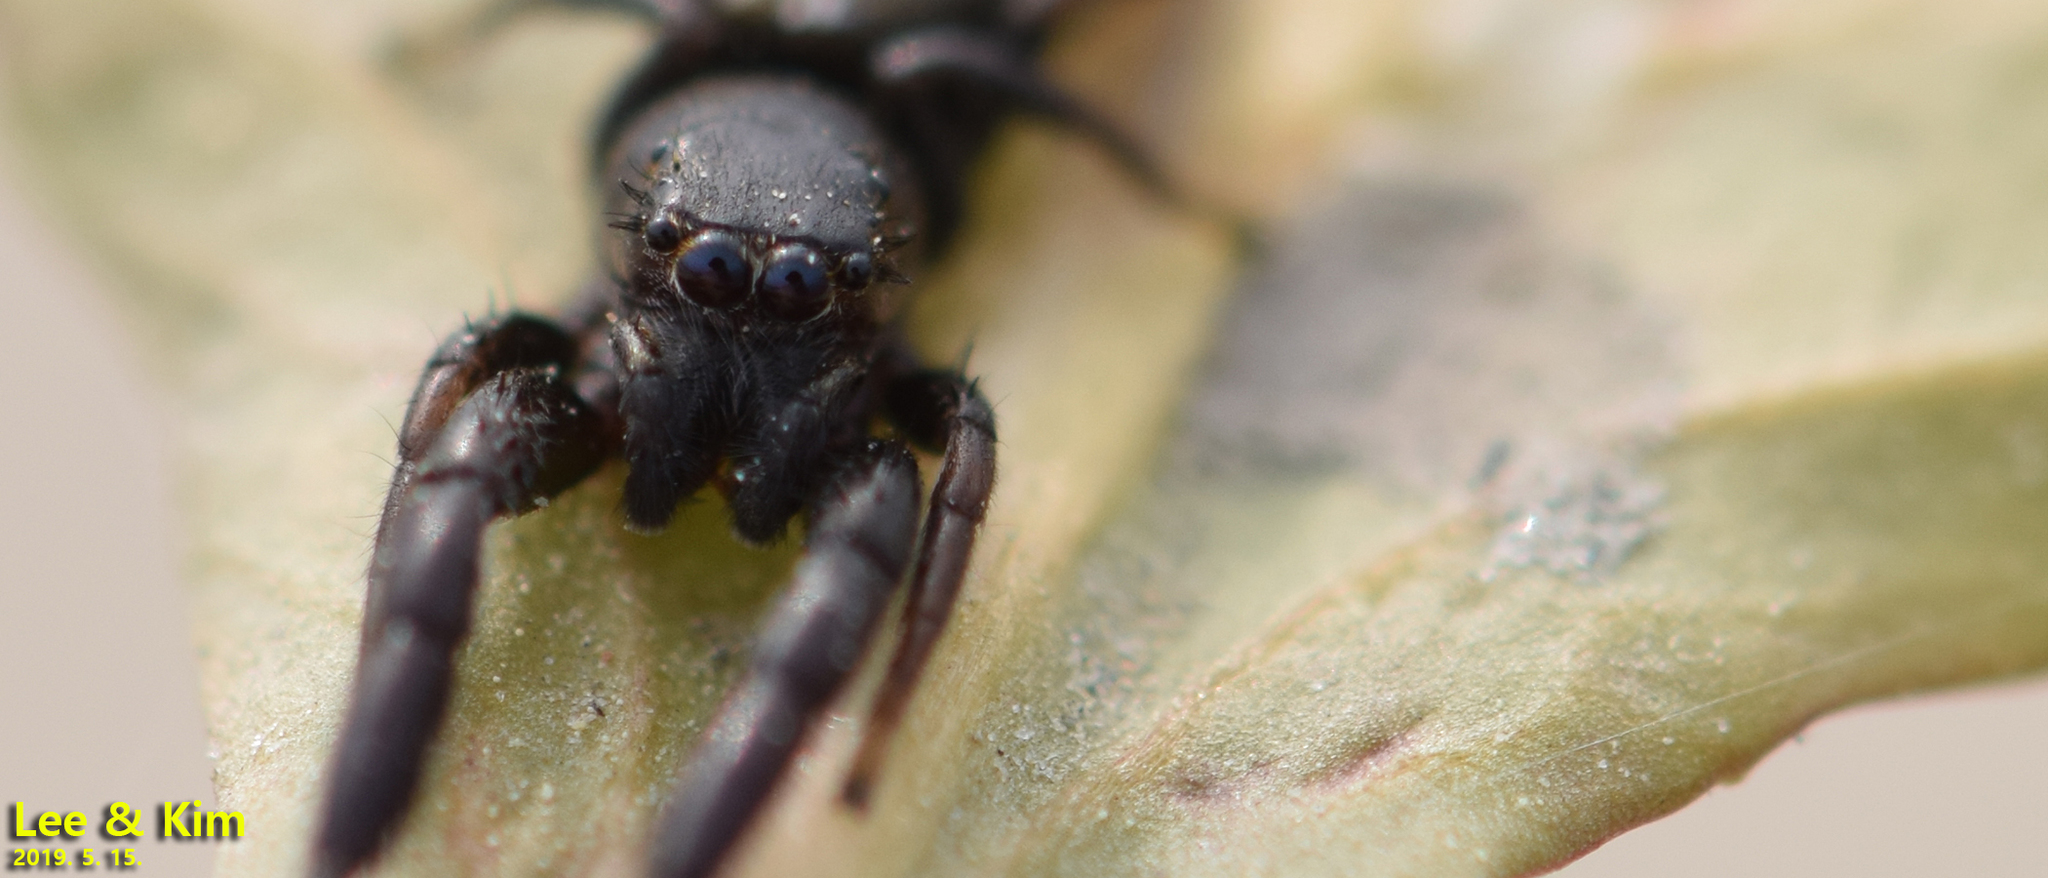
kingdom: Animalia
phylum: Arthropoda
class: Arachnida
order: Araneae
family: Salticidae
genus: Mendoza
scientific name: Mendoza canestrinii
